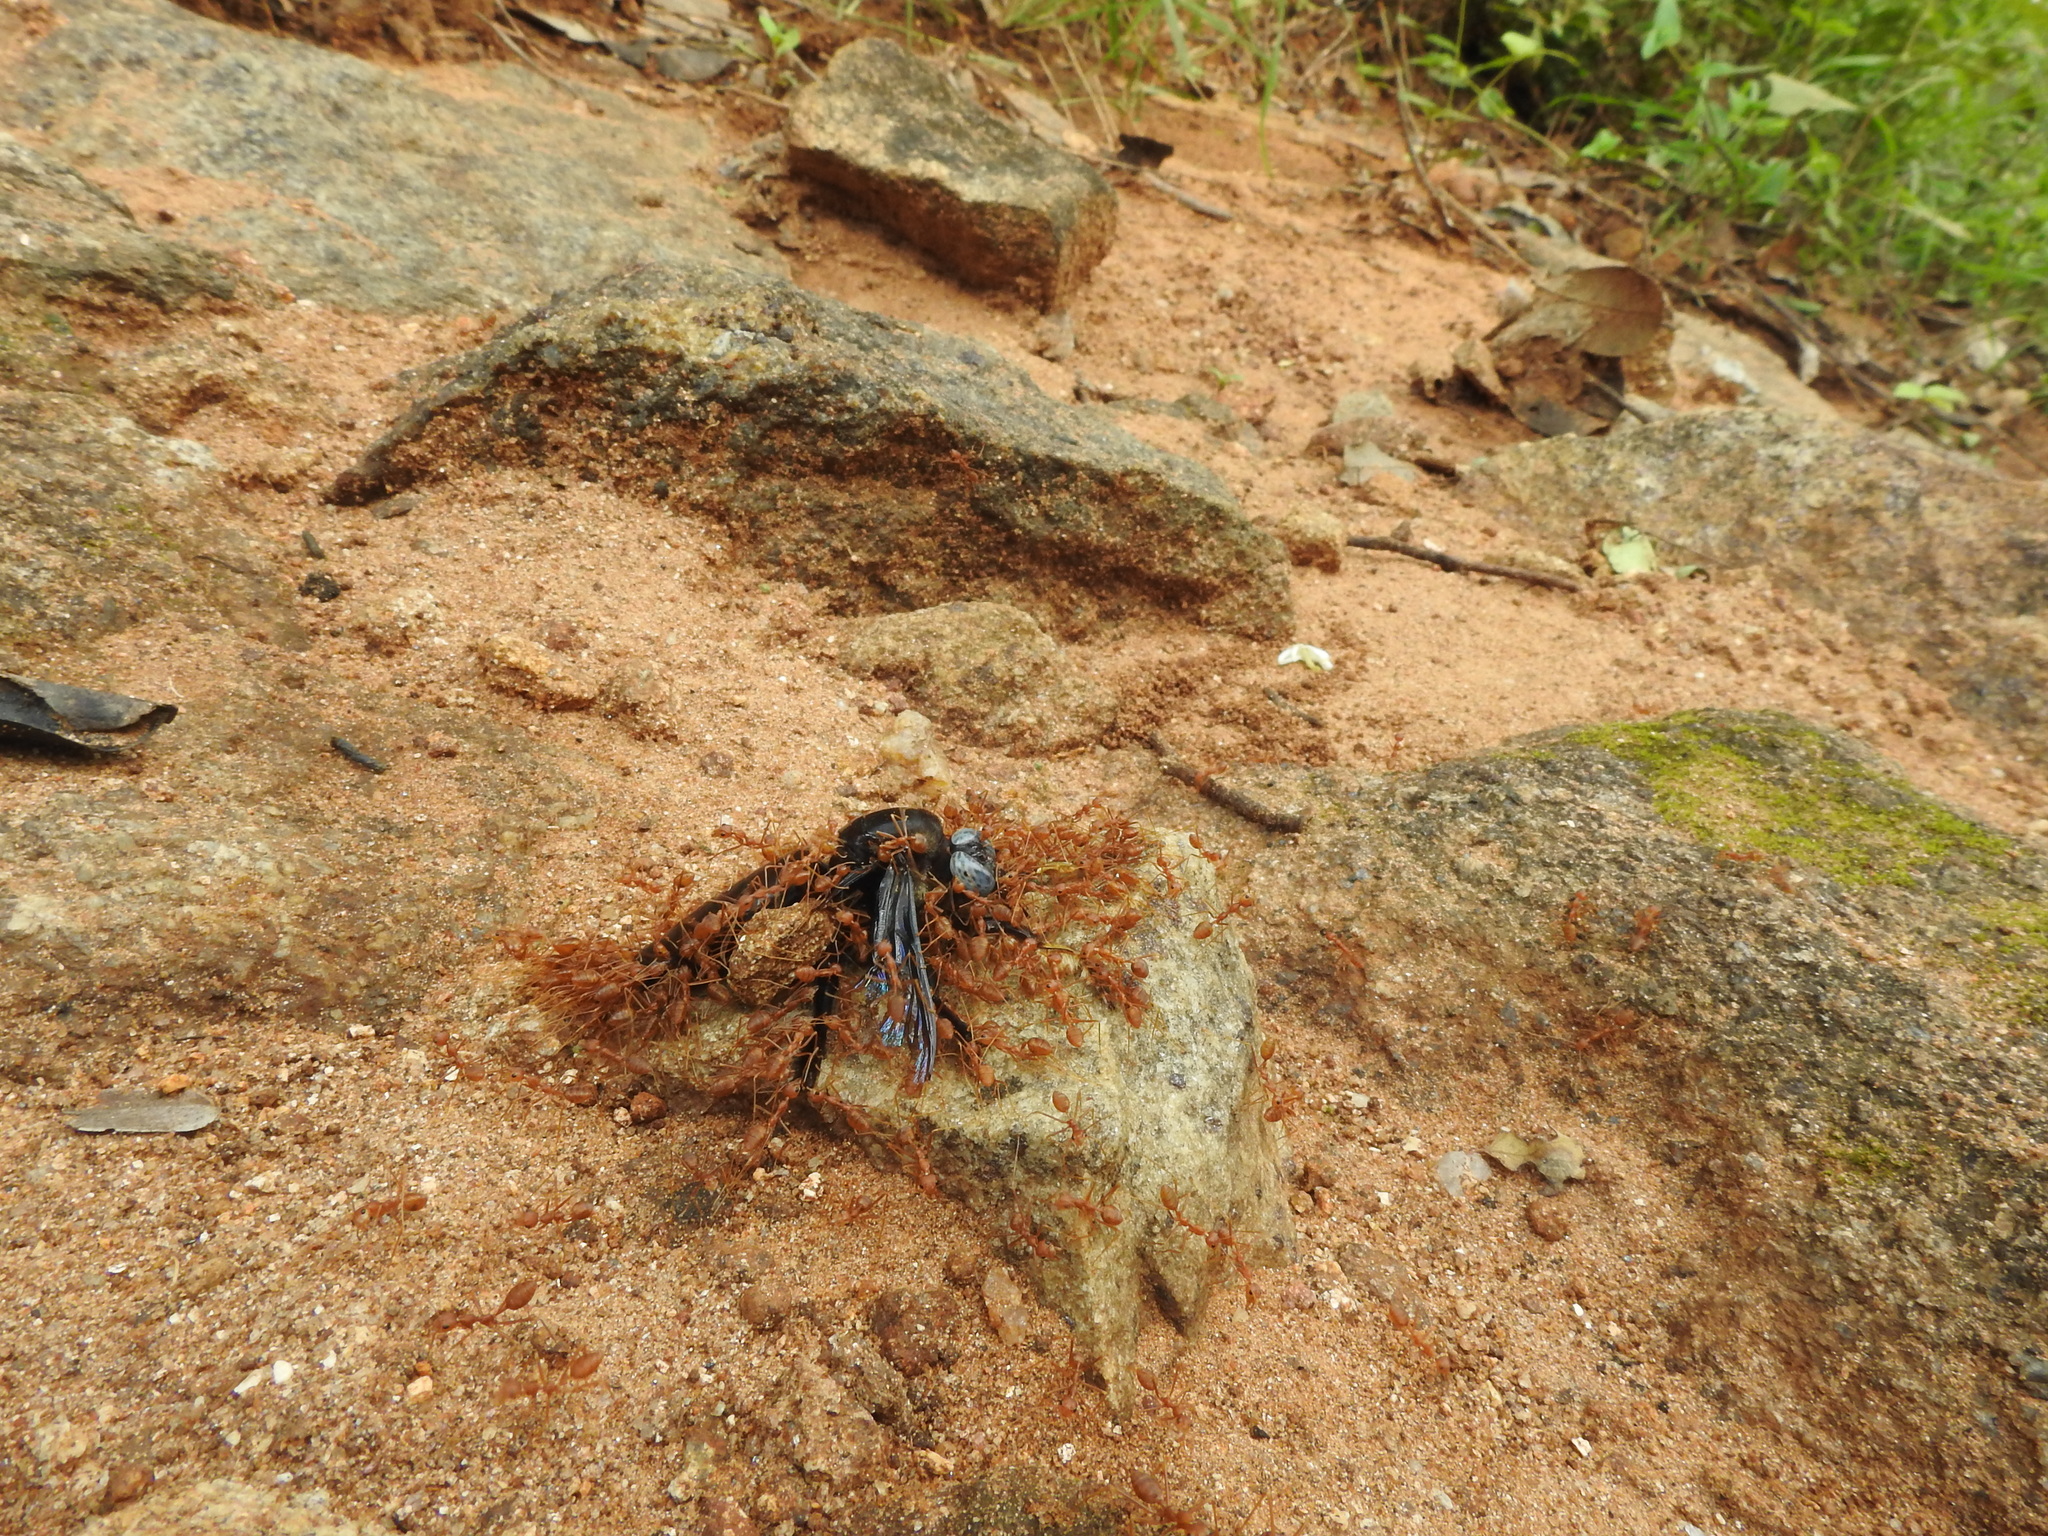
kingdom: Animalia
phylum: Arthropoda
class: Insecta
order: Hymenoptera
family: Apidae
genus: Xylocopa
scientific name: Xylocopa tenuiscapa
